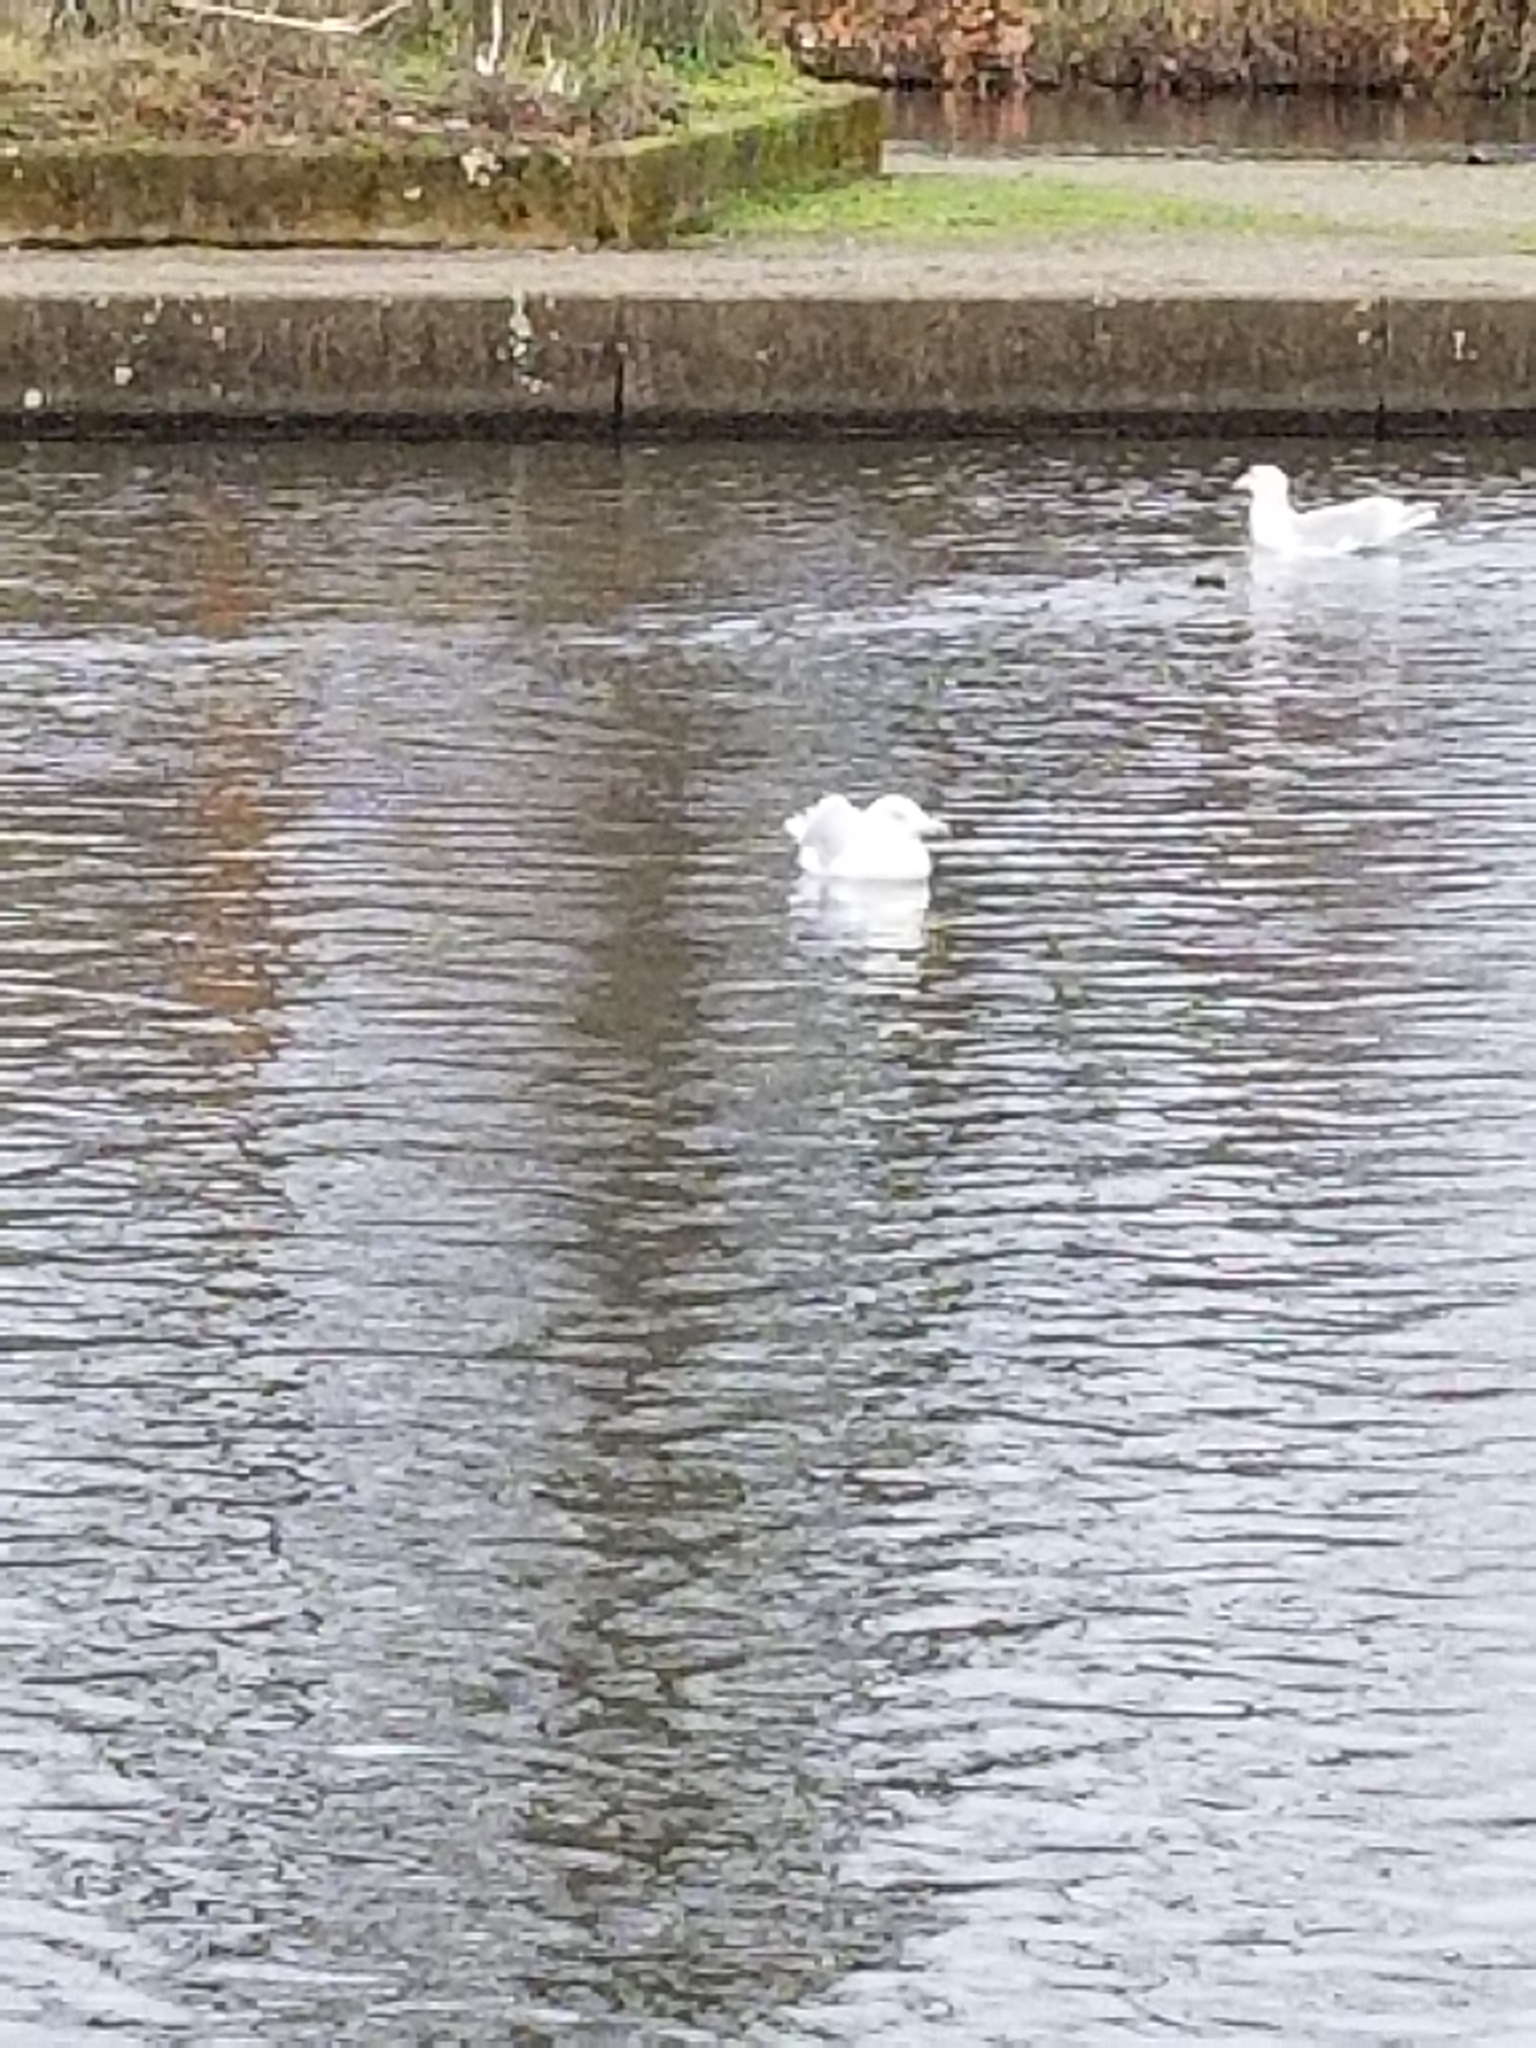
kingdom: Animalia
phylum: Chordata
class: Aves
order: Charadriiformes
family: Laridae
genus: Larus
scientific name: Larus
